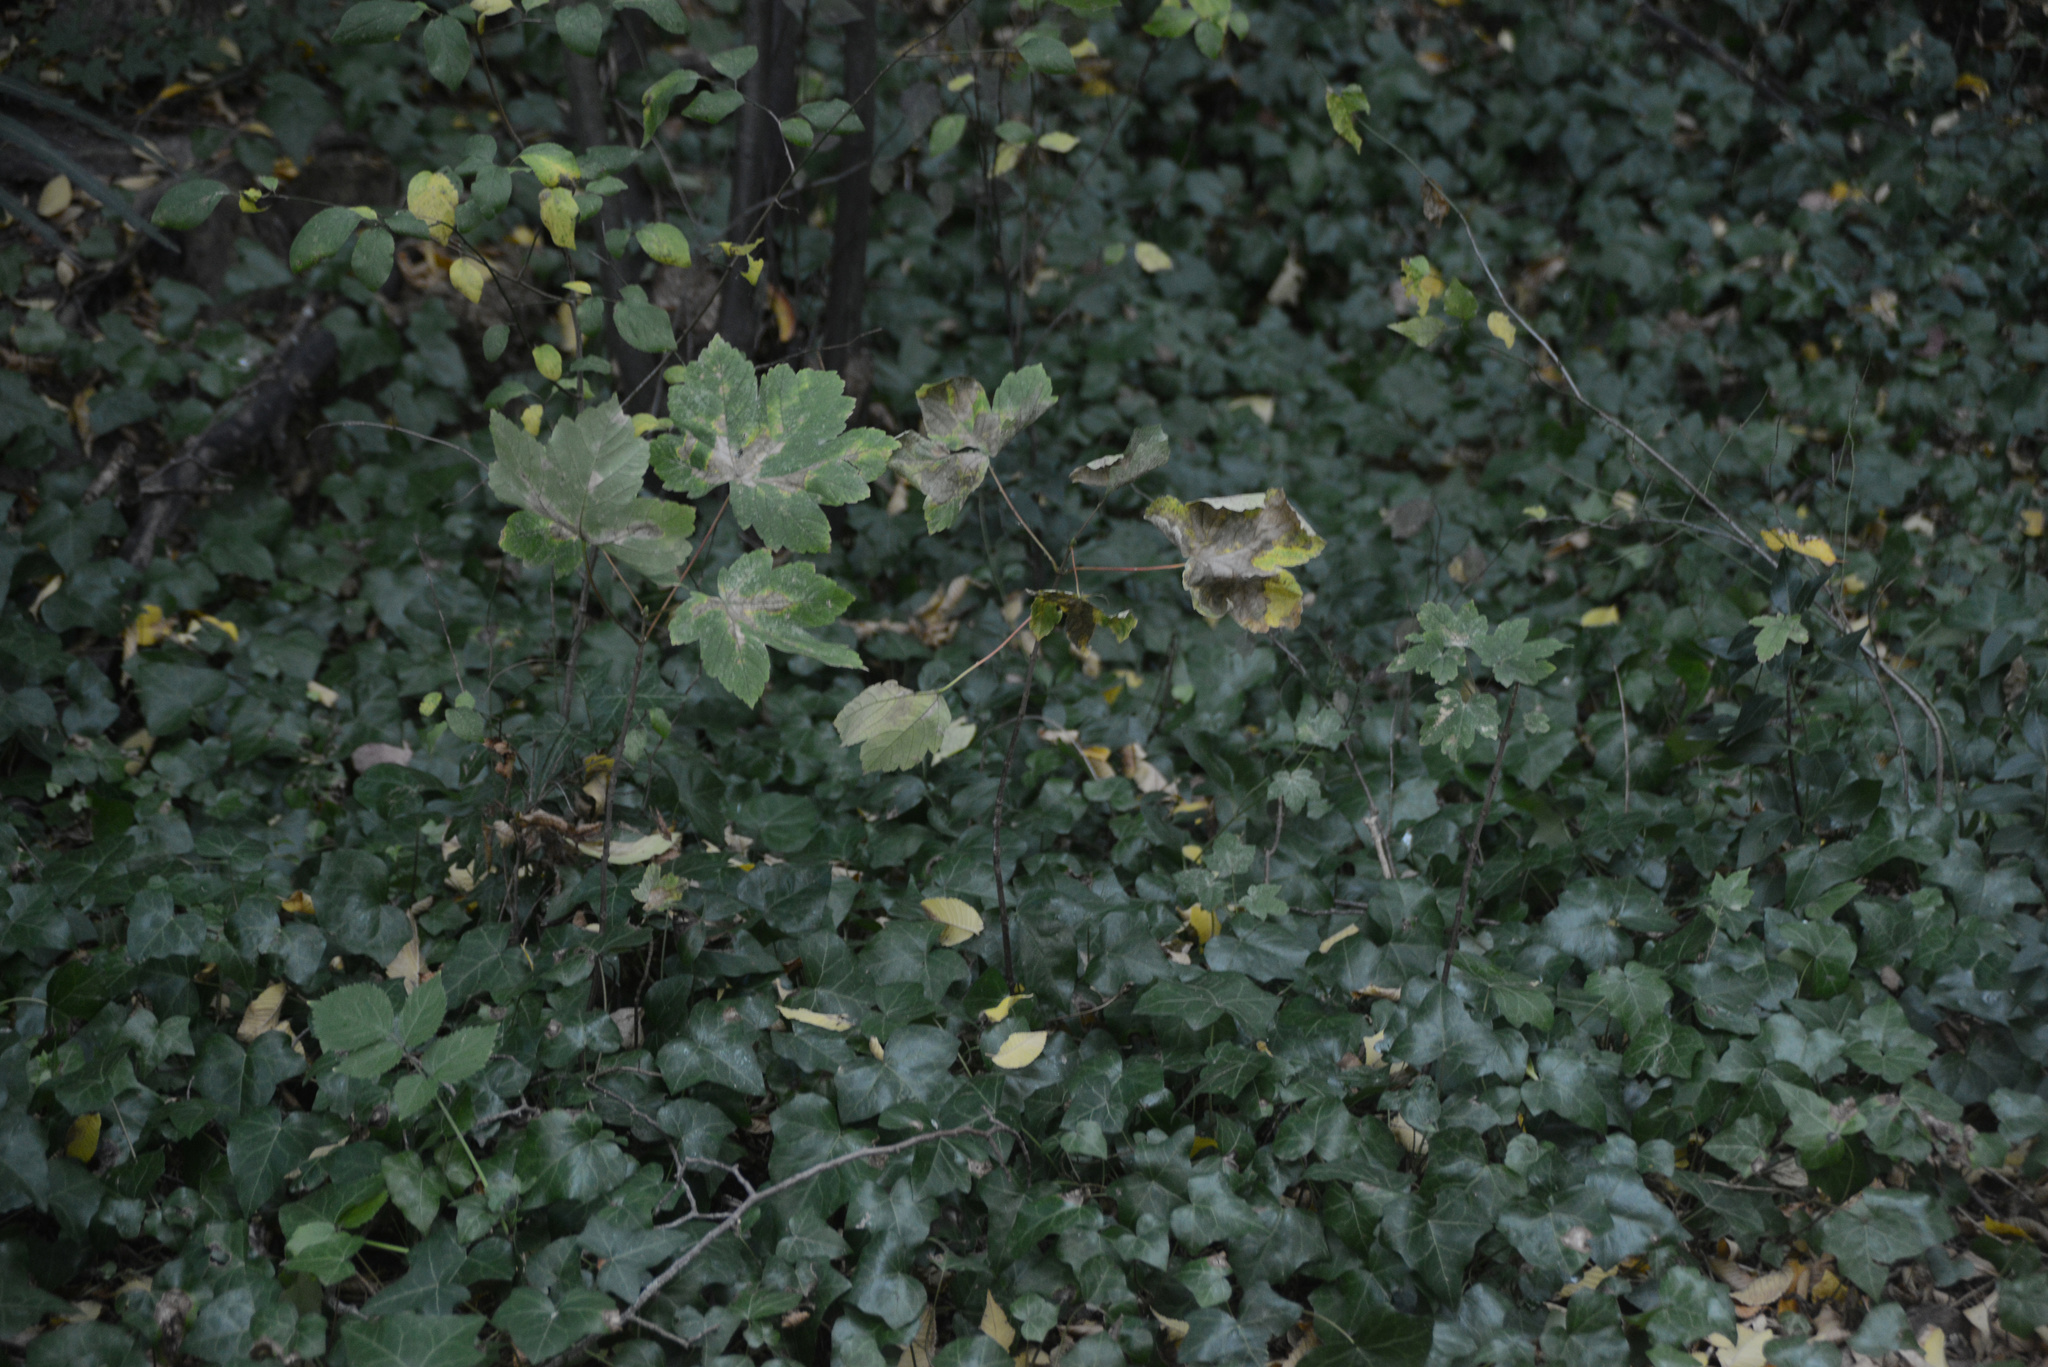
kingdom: Plantae
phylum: Tracheophyta
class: Magnoliopsida
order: Sapindales
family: Sapindaceae
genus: Acer
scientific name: Acer pseudoplatanus
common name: Sycamore
